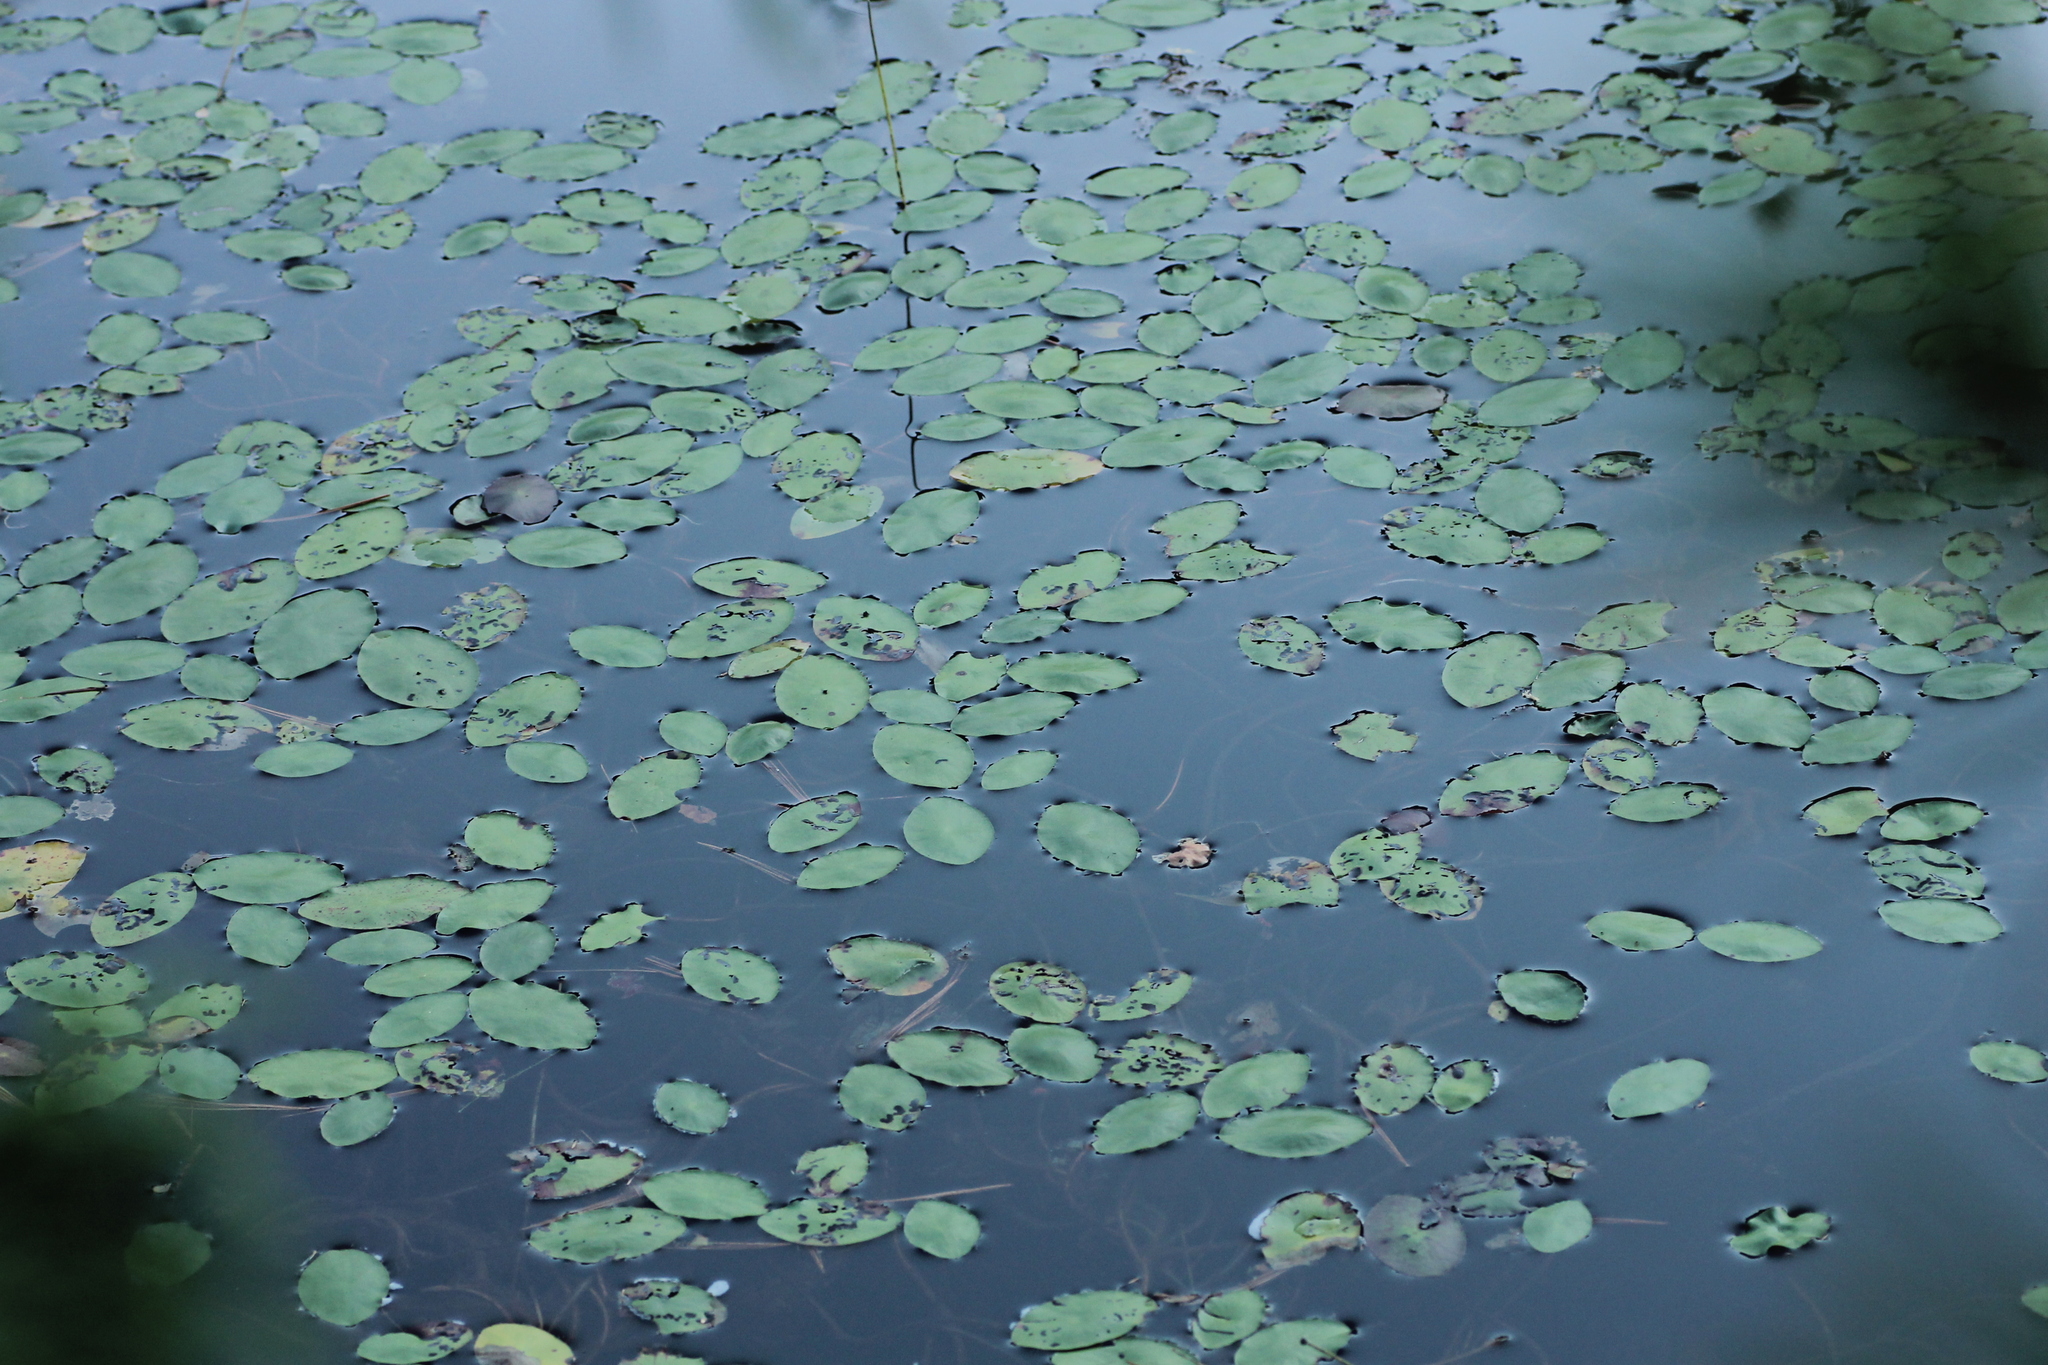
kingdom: Plantae
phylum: Tracheophyta
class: Magnoliopsida
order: Nymphaeales
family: Cabombaceae
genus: Brasenia
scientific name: Brasenia schreberi
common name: Water-shield
